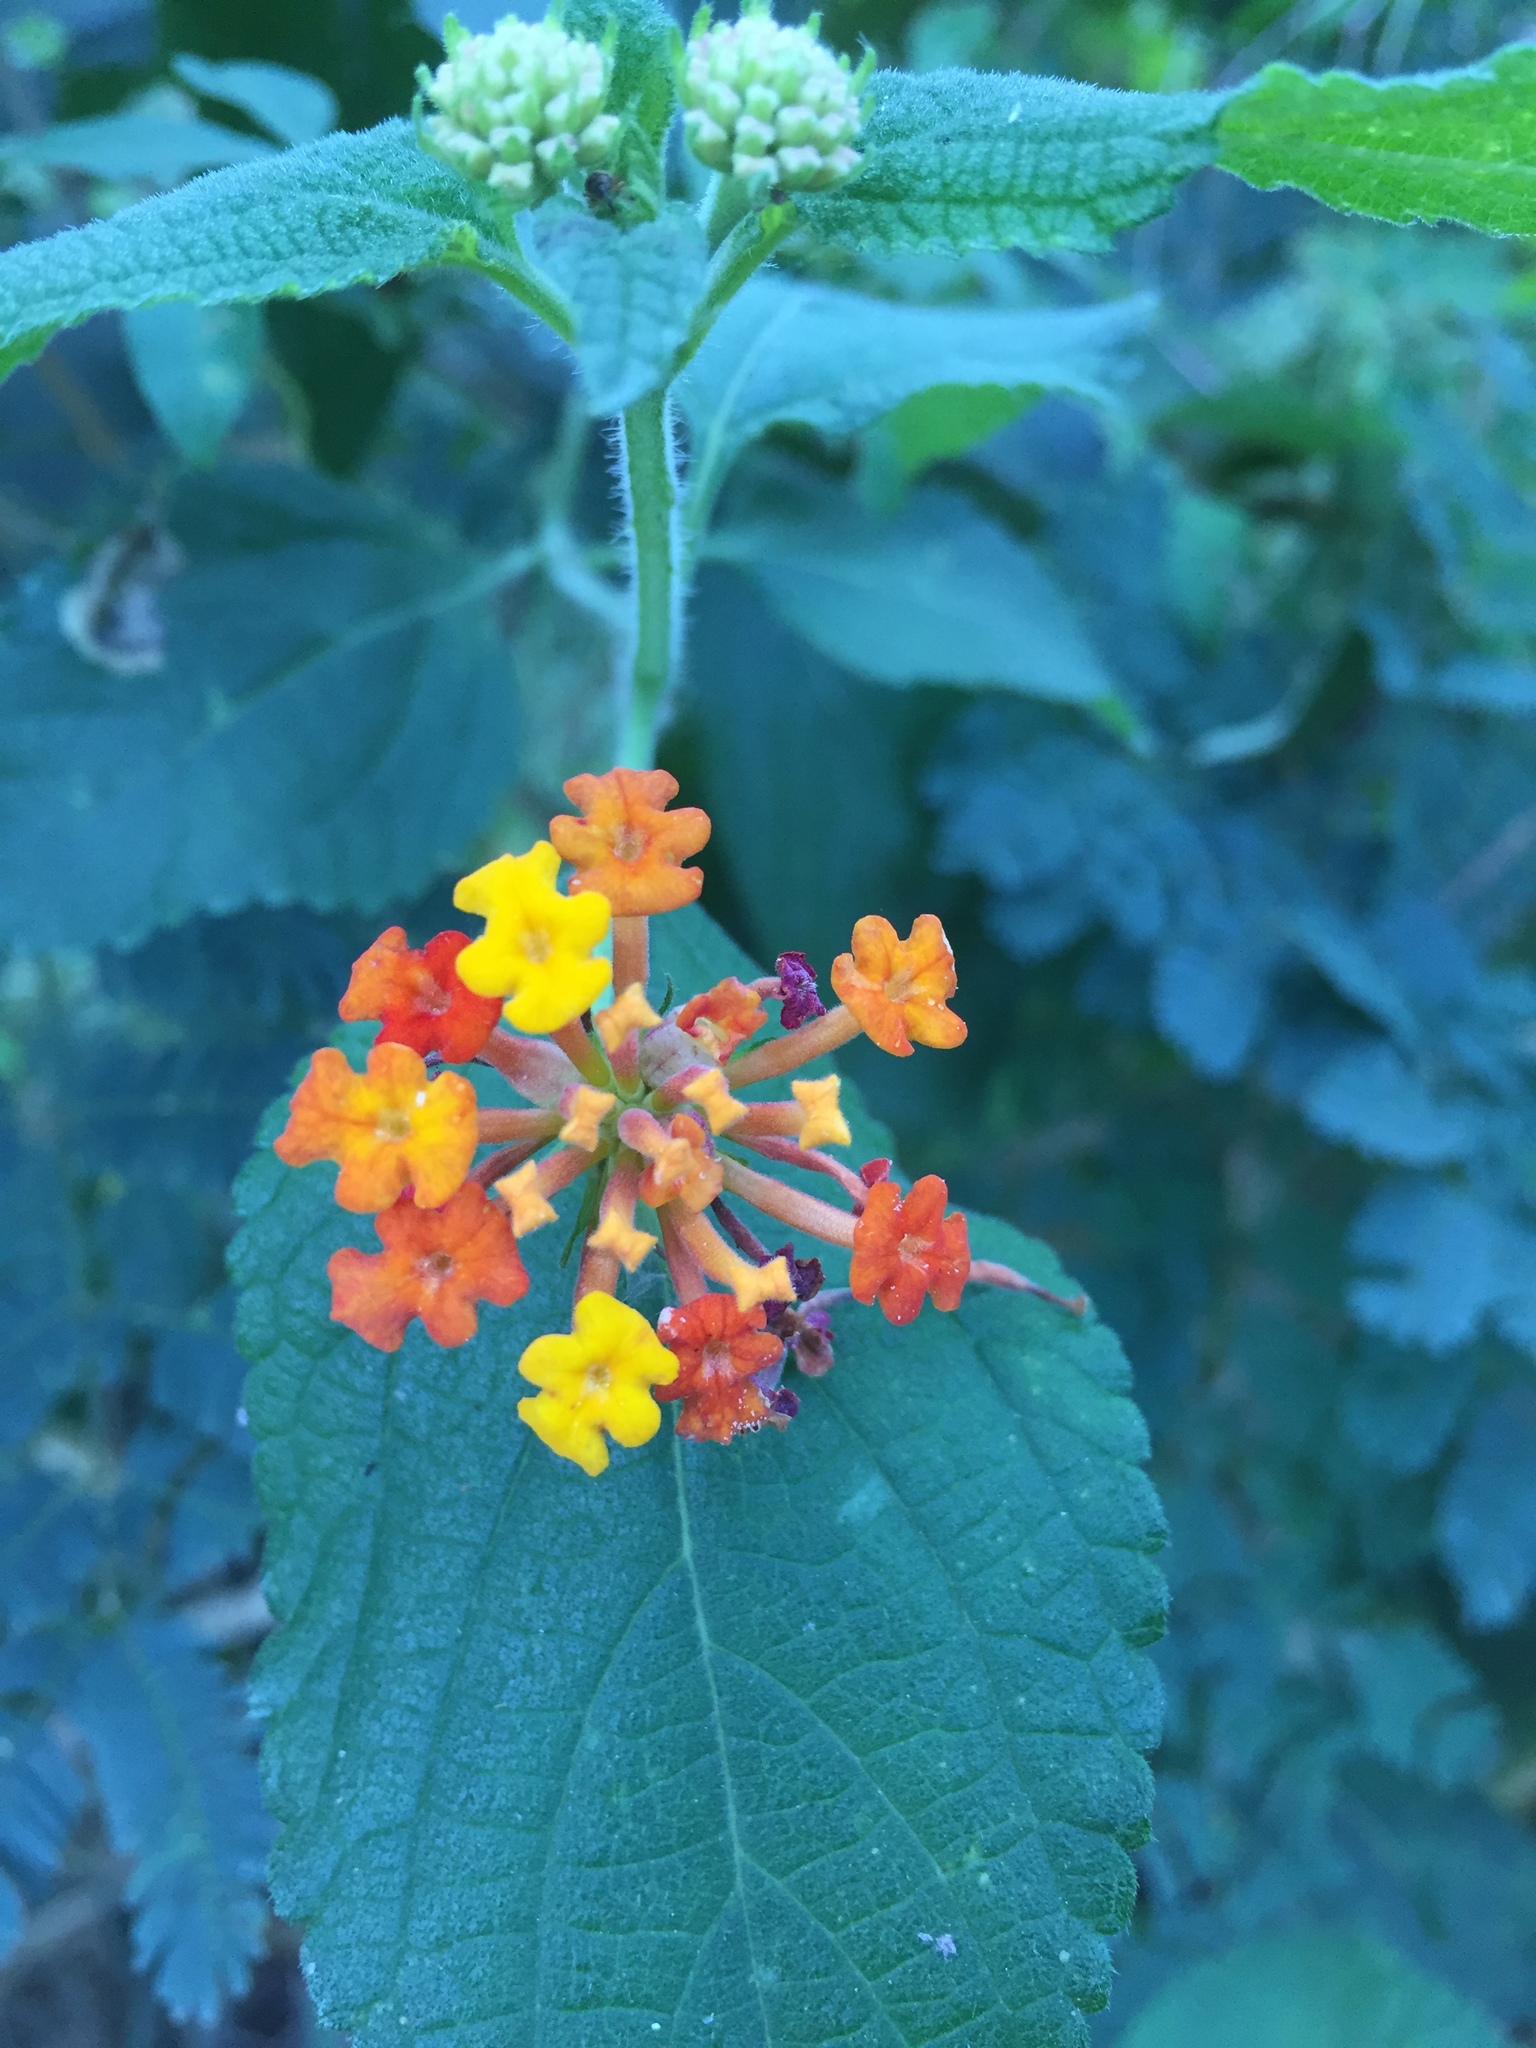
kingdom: Plantae
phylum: Tracheophyta
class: Magnoliopsida
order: Lamiales
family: Verbenaceae
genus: Lantana
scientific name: Lantana camara
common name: Lantana
